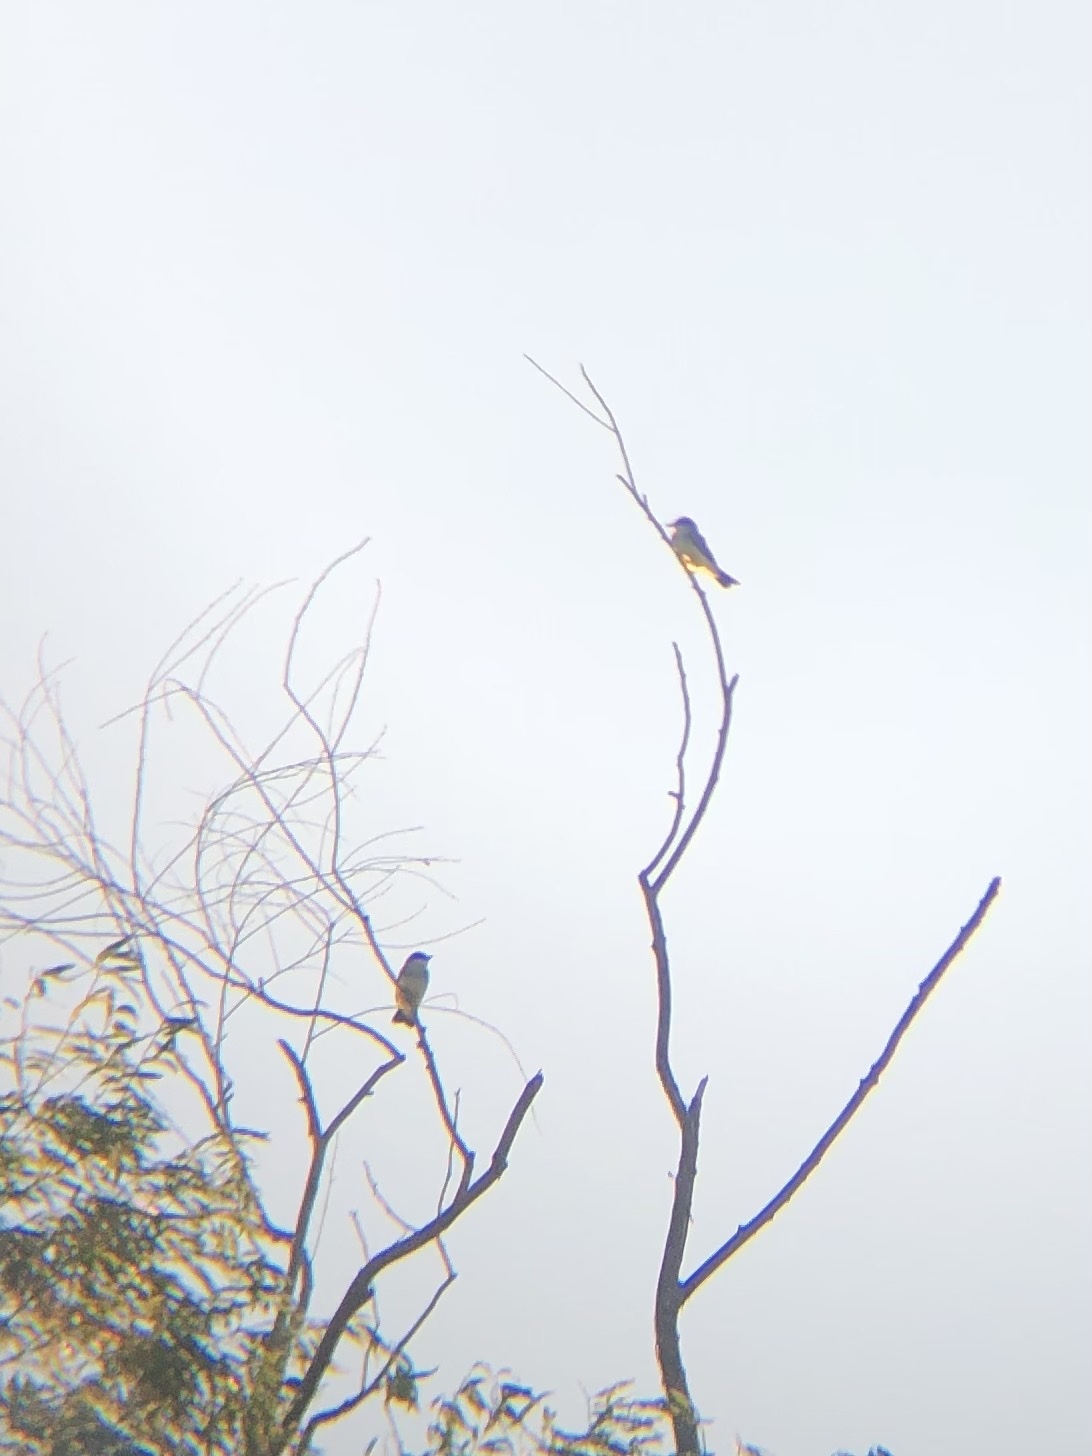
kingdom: Animalia
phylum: Chordata
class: Aves
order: Passeriformes
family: Tyrannidae
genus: Tyrannus
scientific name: Tyrannus verticalis
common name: Western kingbird
